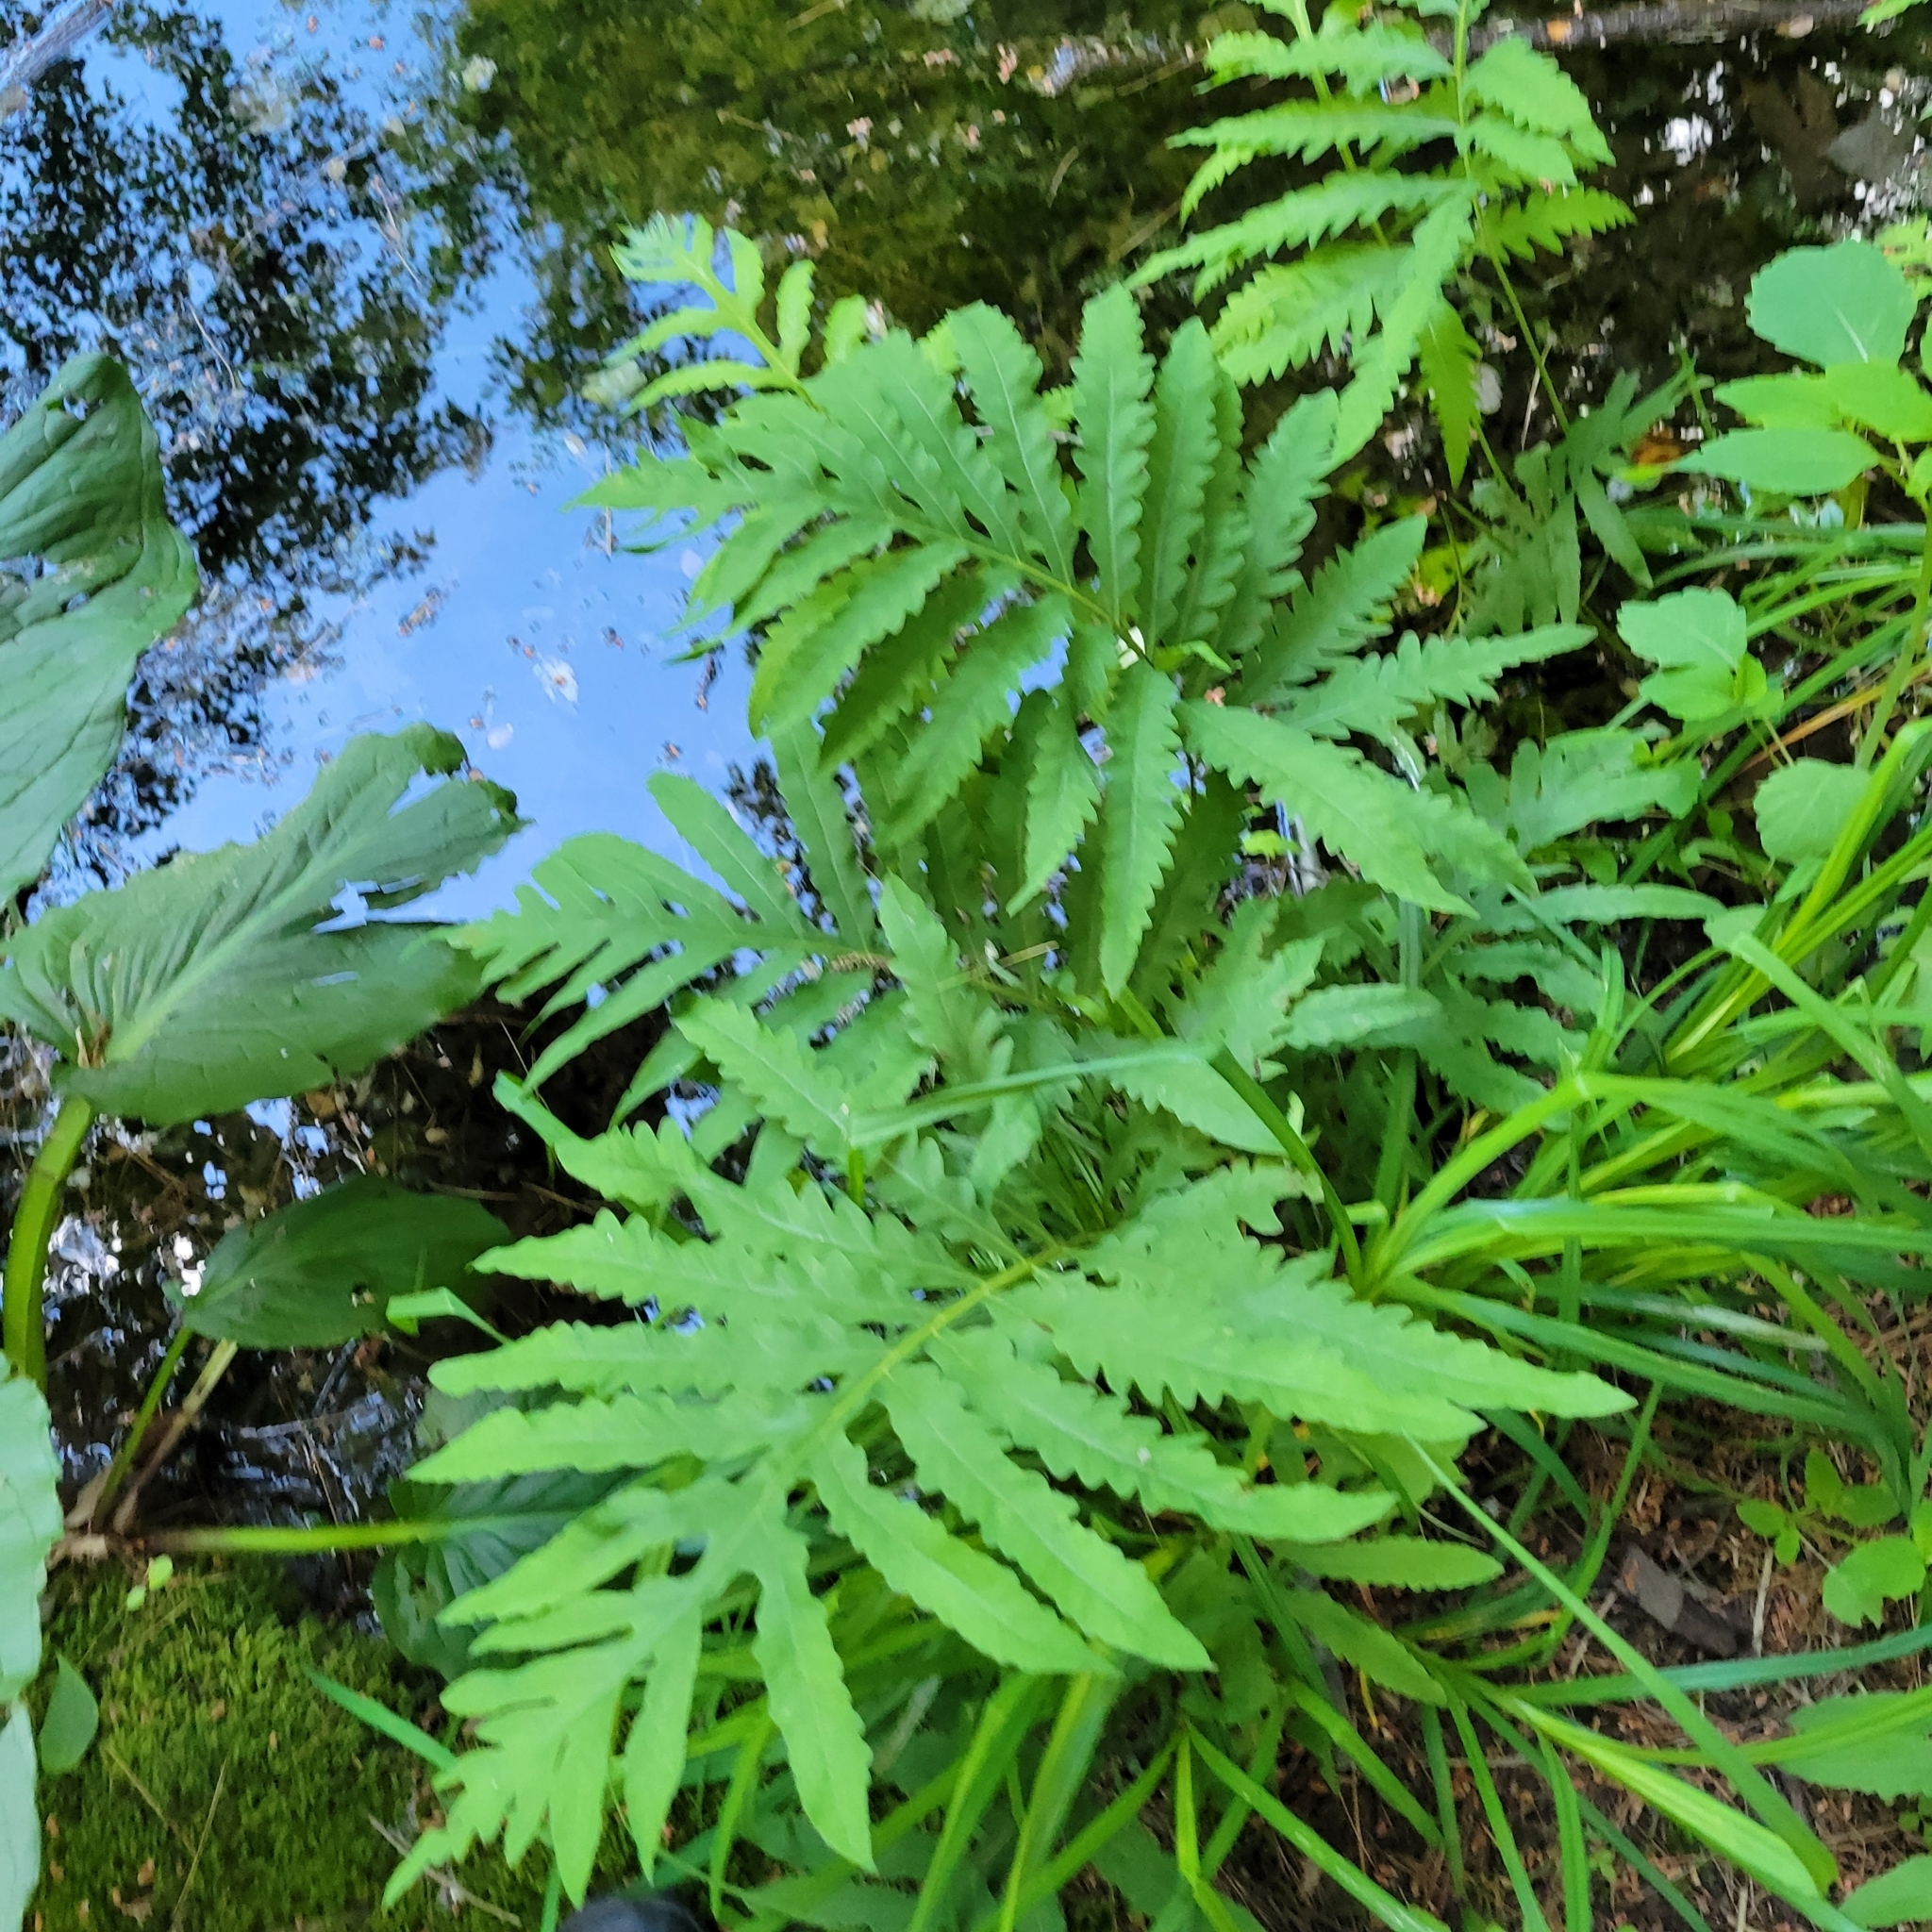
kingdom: Plantae
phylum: Tracheophyta
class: Polypodiopsida
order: Polypodiales
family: Onocleaceae
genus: Onoclea
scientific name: Onoclea sensibilis
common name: Sensitive fern
